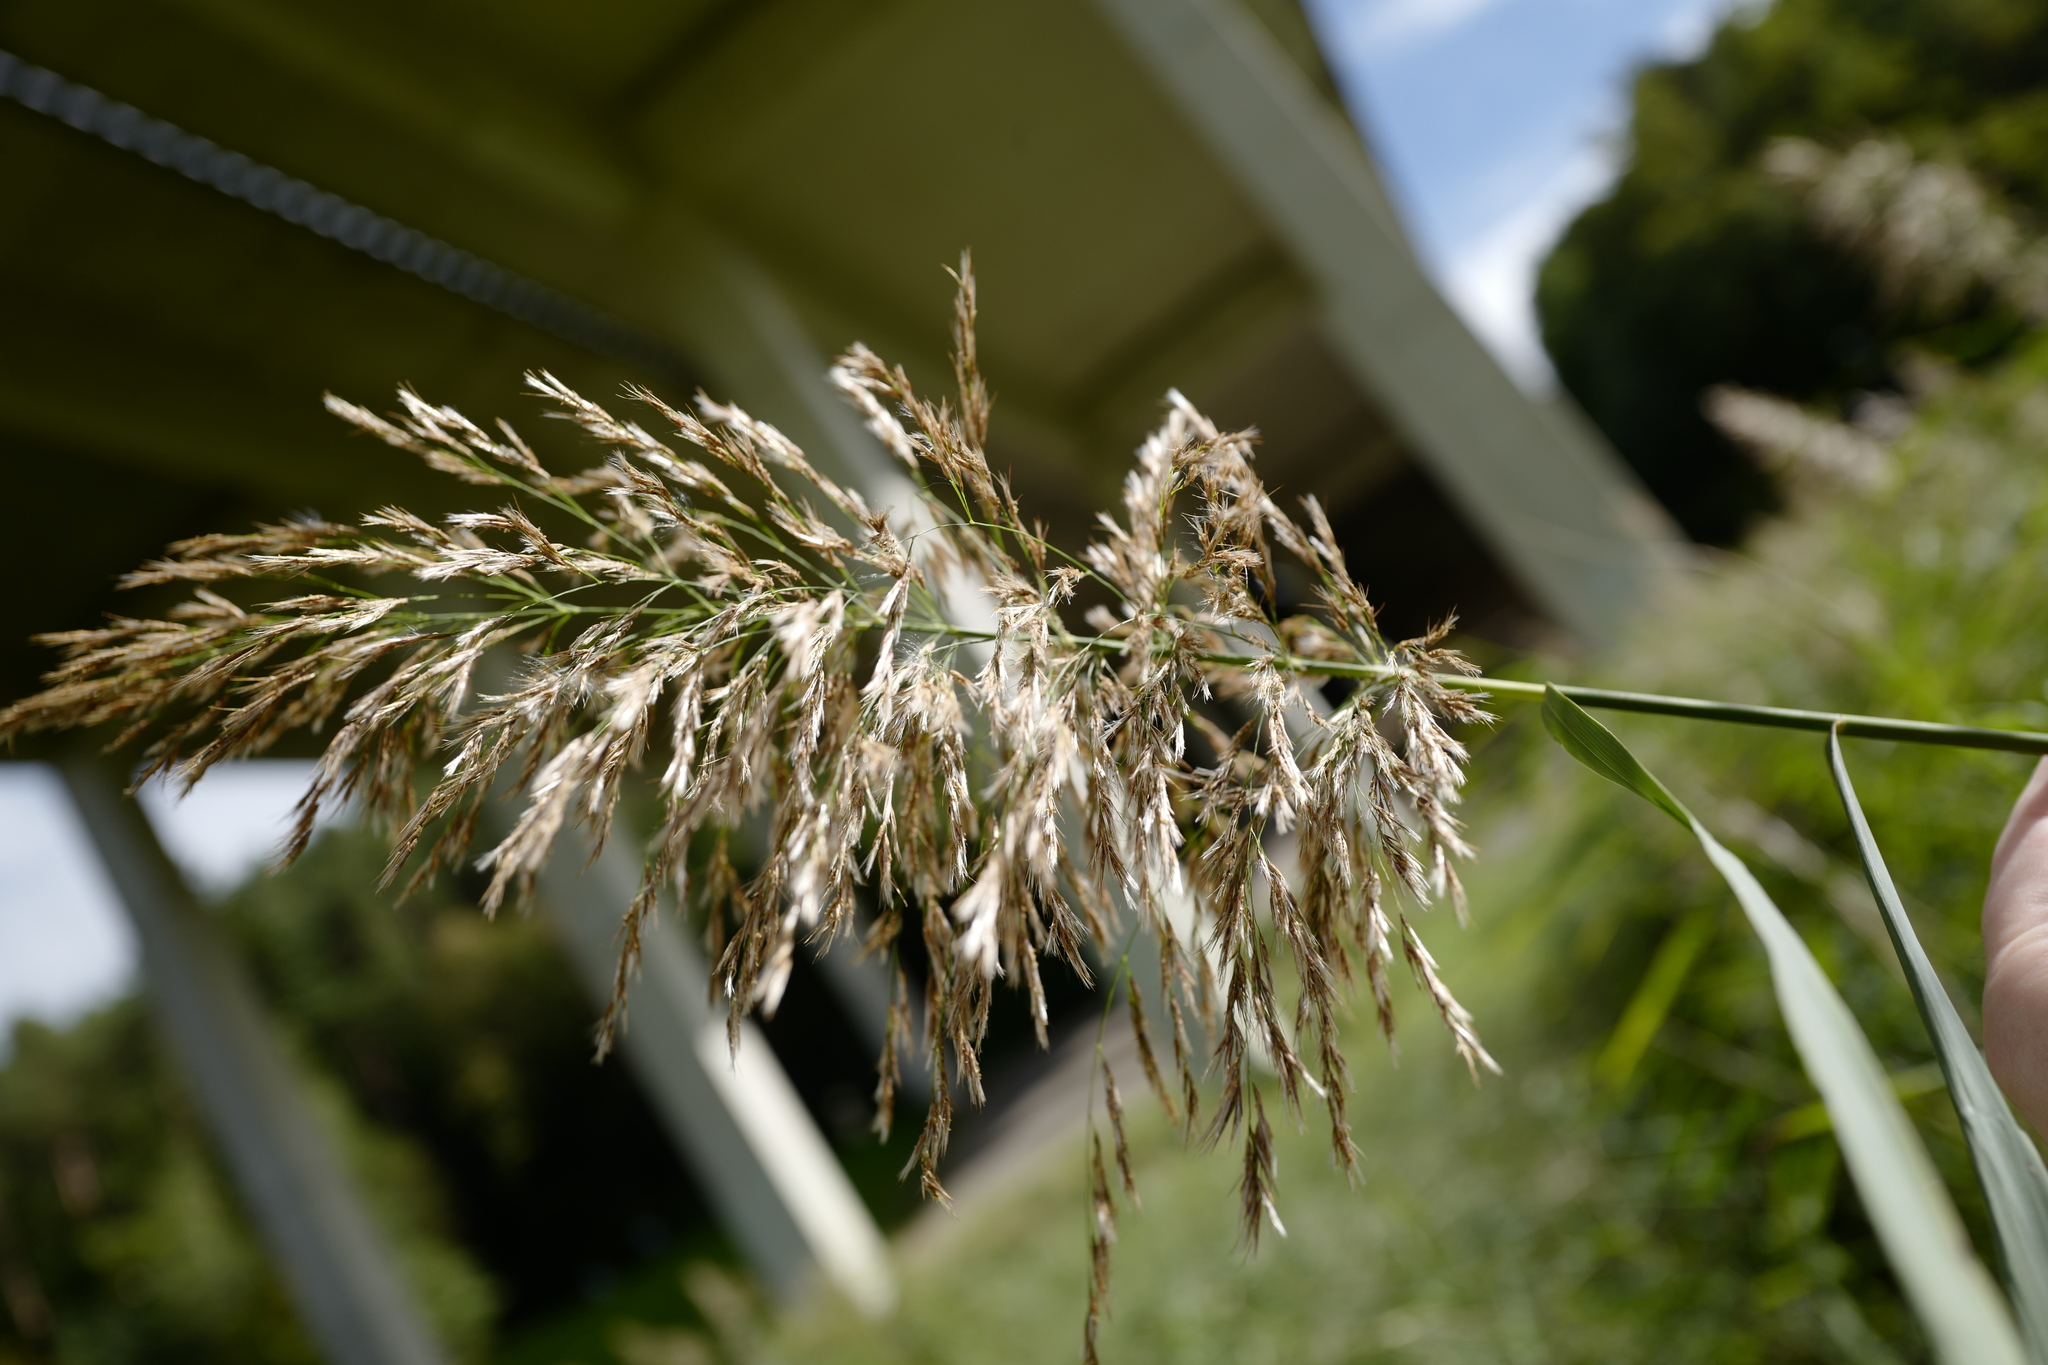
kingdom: Plantae
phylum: Tracheophyta
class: Liliopsida
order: Poales
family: Poaceae
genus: Phragmites
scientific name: Phragmites australis
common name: Common reed
